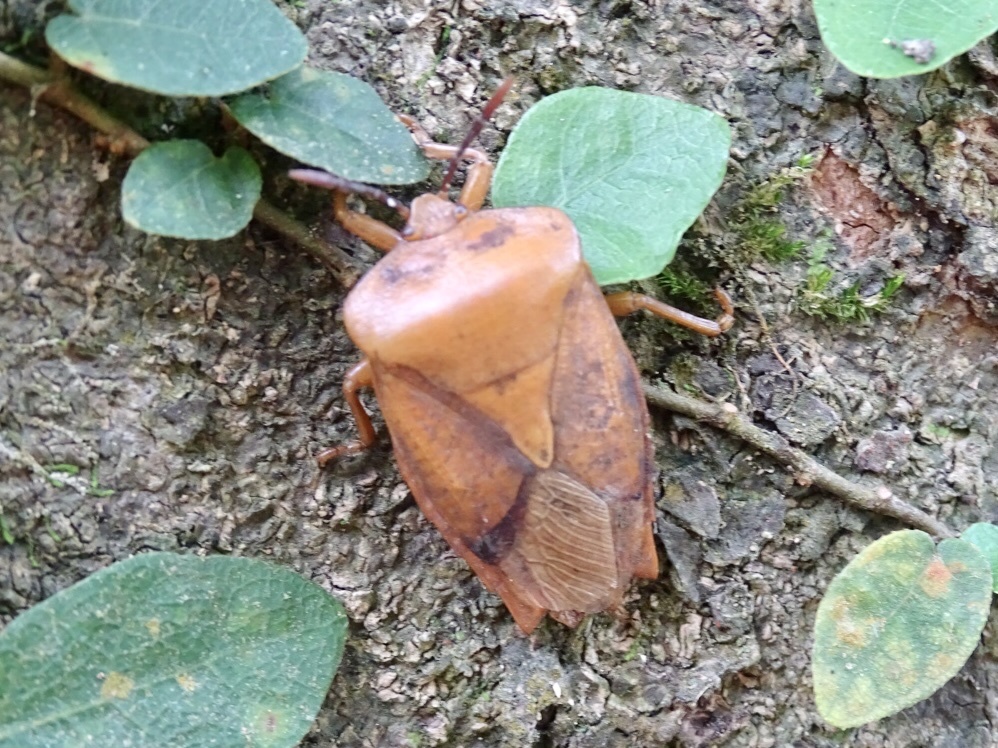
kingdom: Animalia
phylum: Arthropoda
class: Insecta
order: Hemiptera
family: Tessaratomidae
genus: Tessaratoma
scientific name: Tessaratoma papillosa
